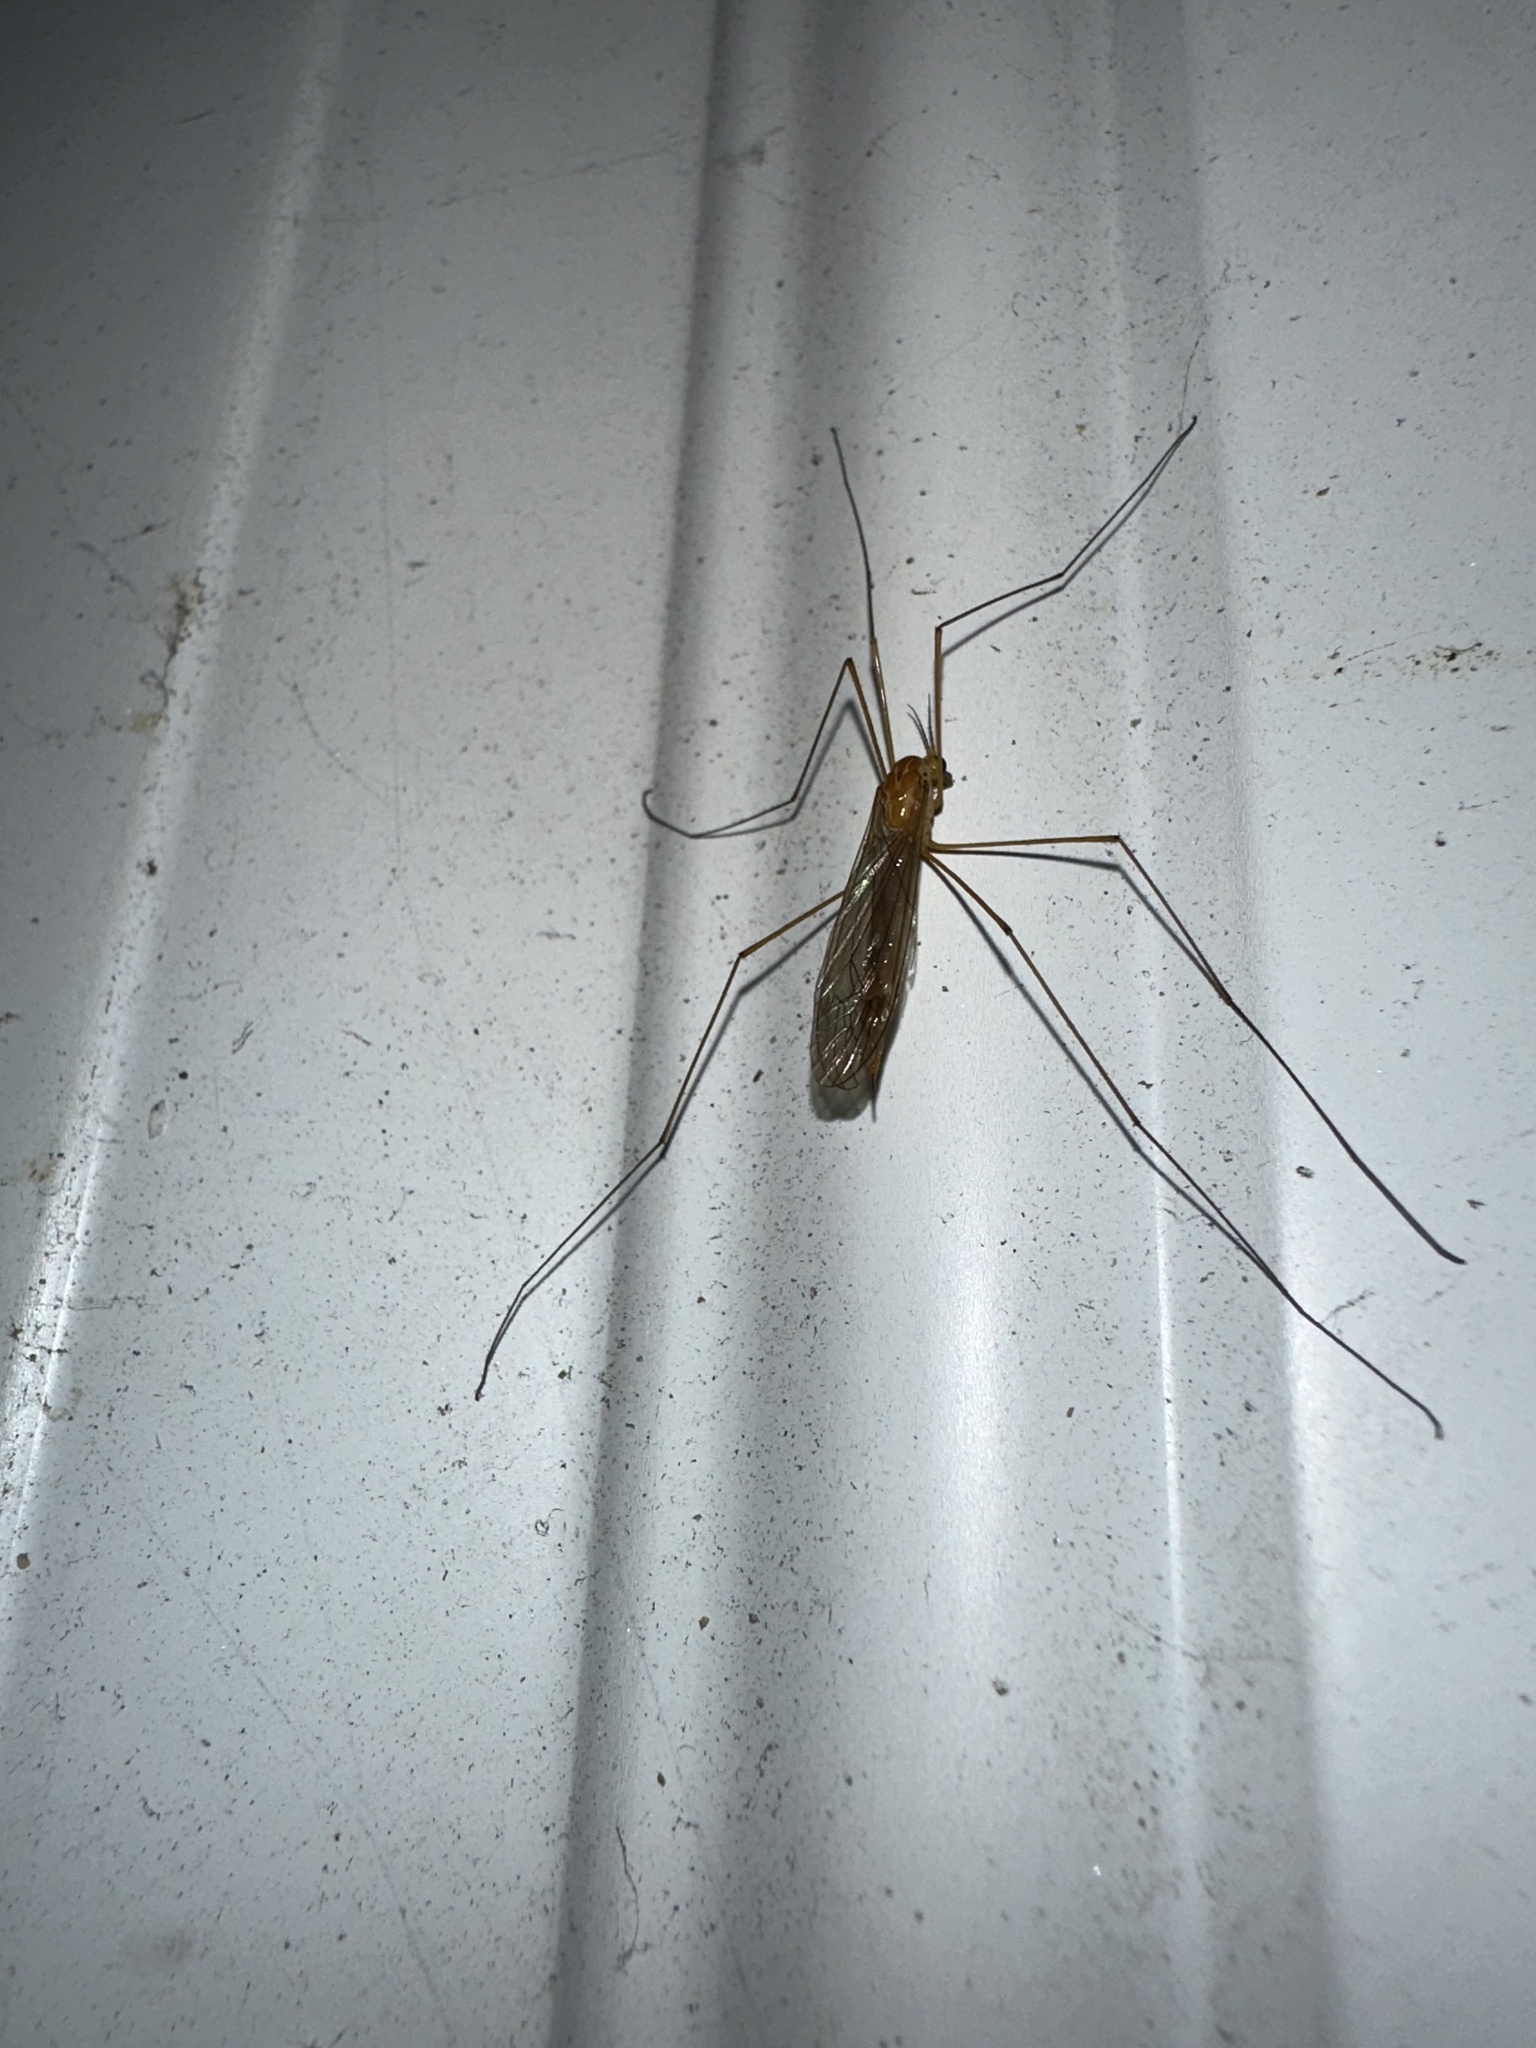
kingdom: Animalia
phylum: Arthropoda
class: Insecta
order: Diptera
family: Tipulidae
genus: Nephrotoma
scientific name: Nephrotoma
